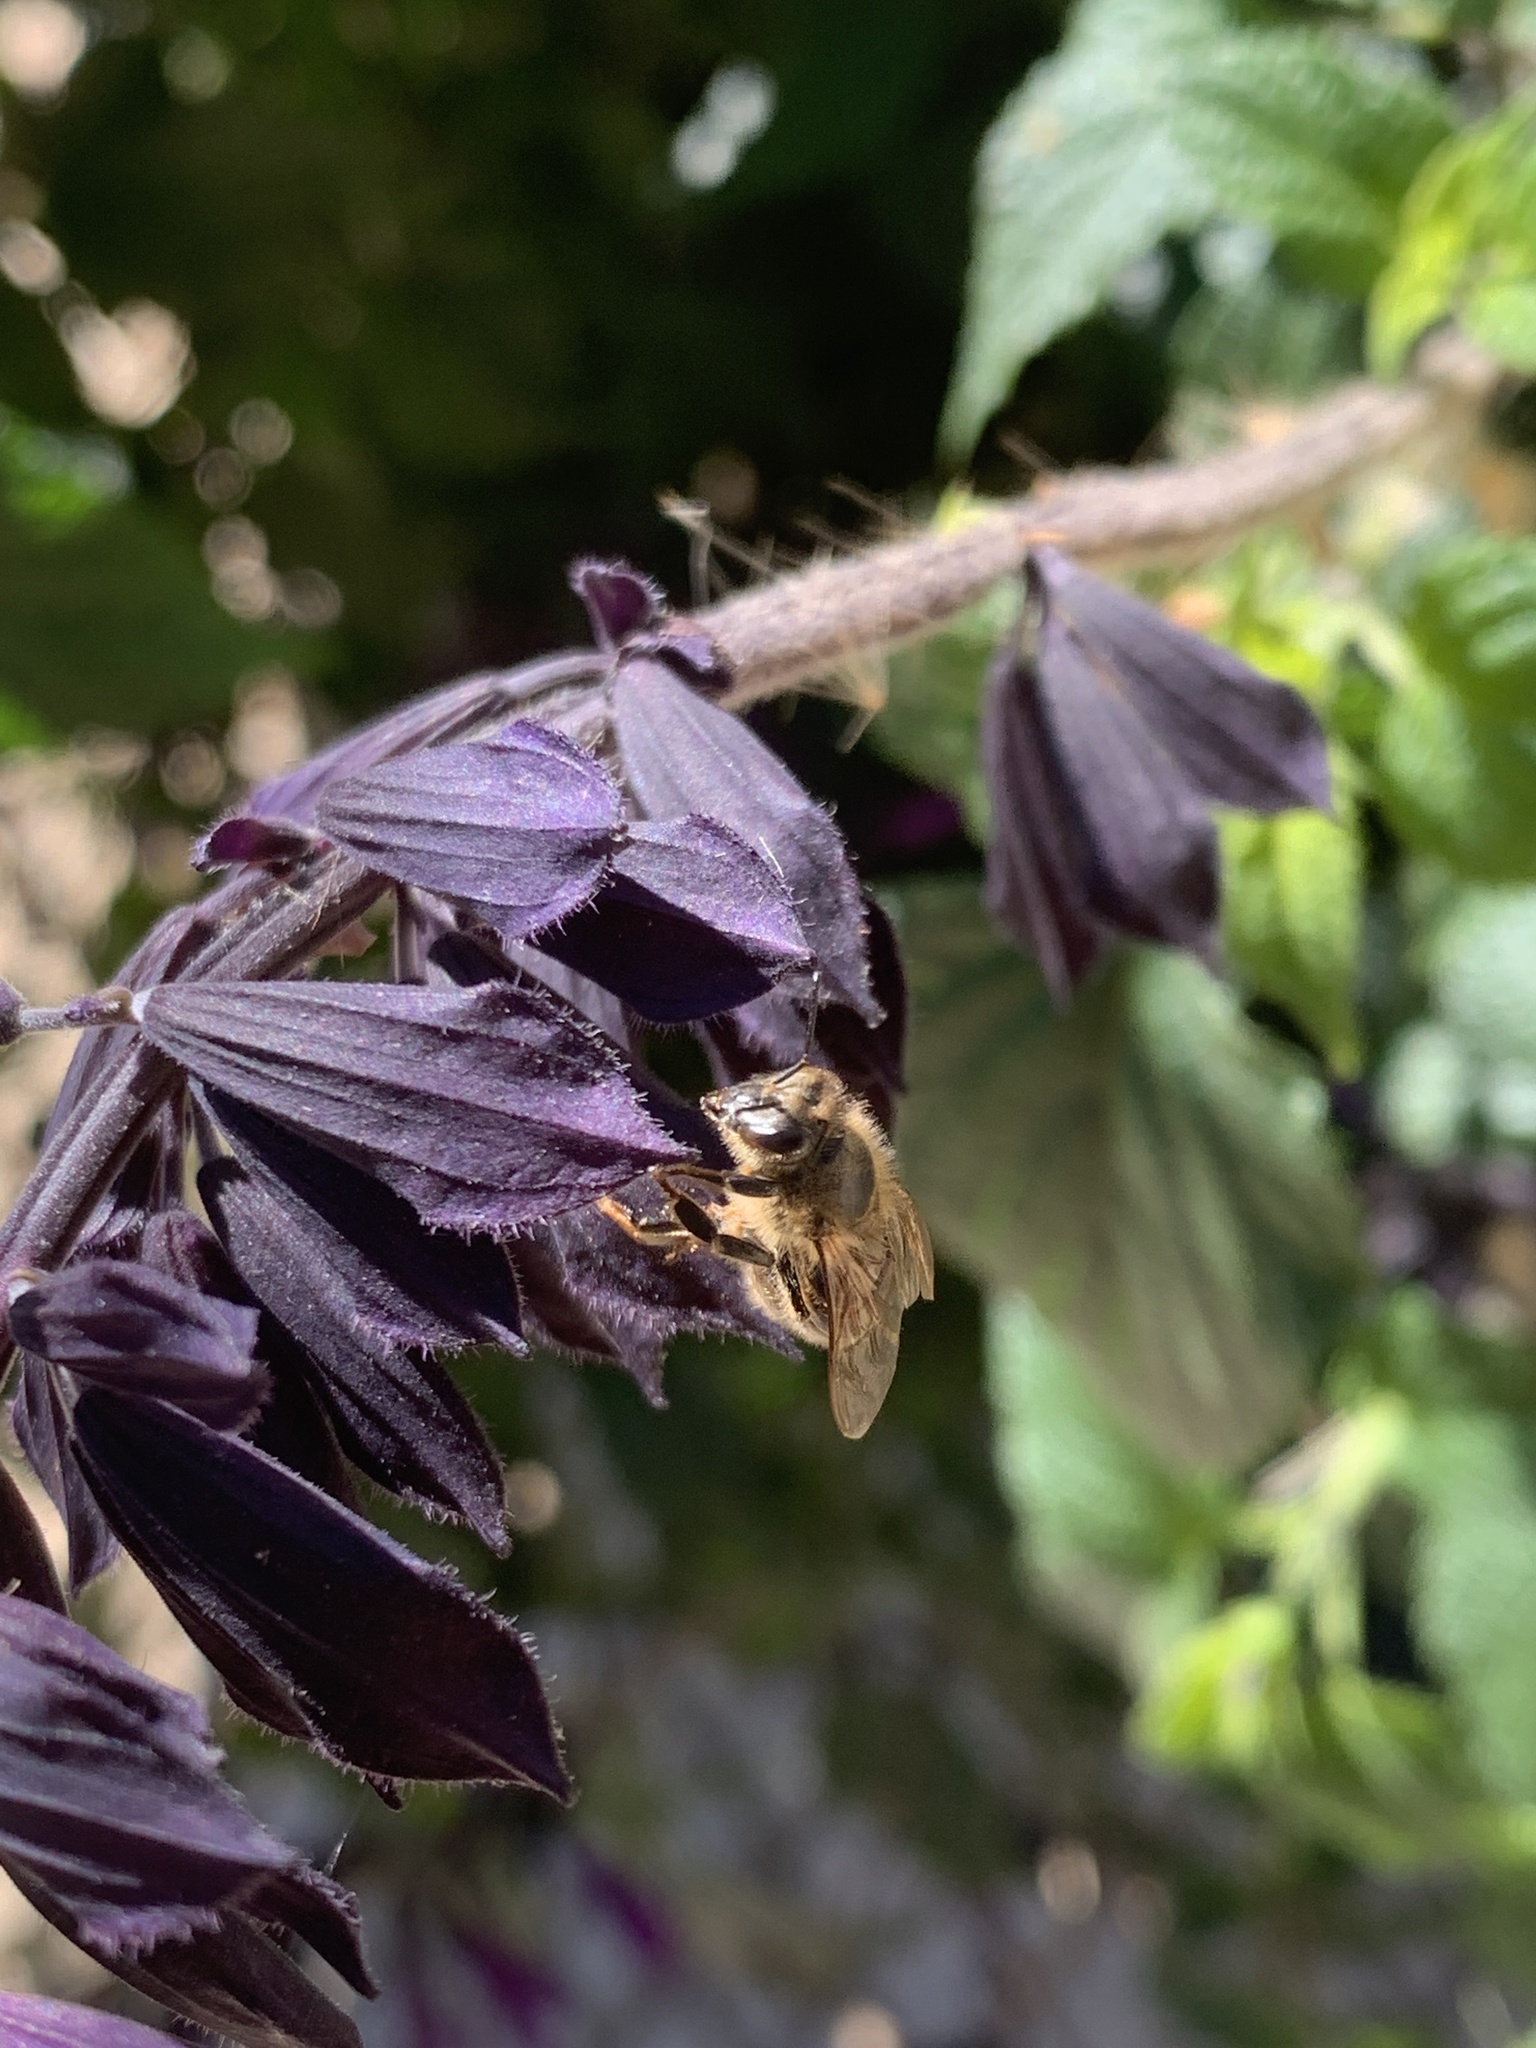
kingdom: Animalia
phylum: Arthropoda
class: Insecta
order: Hymenoptera
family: Apidae
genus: Apis
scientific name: Apis mellifera
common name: Honey bee
